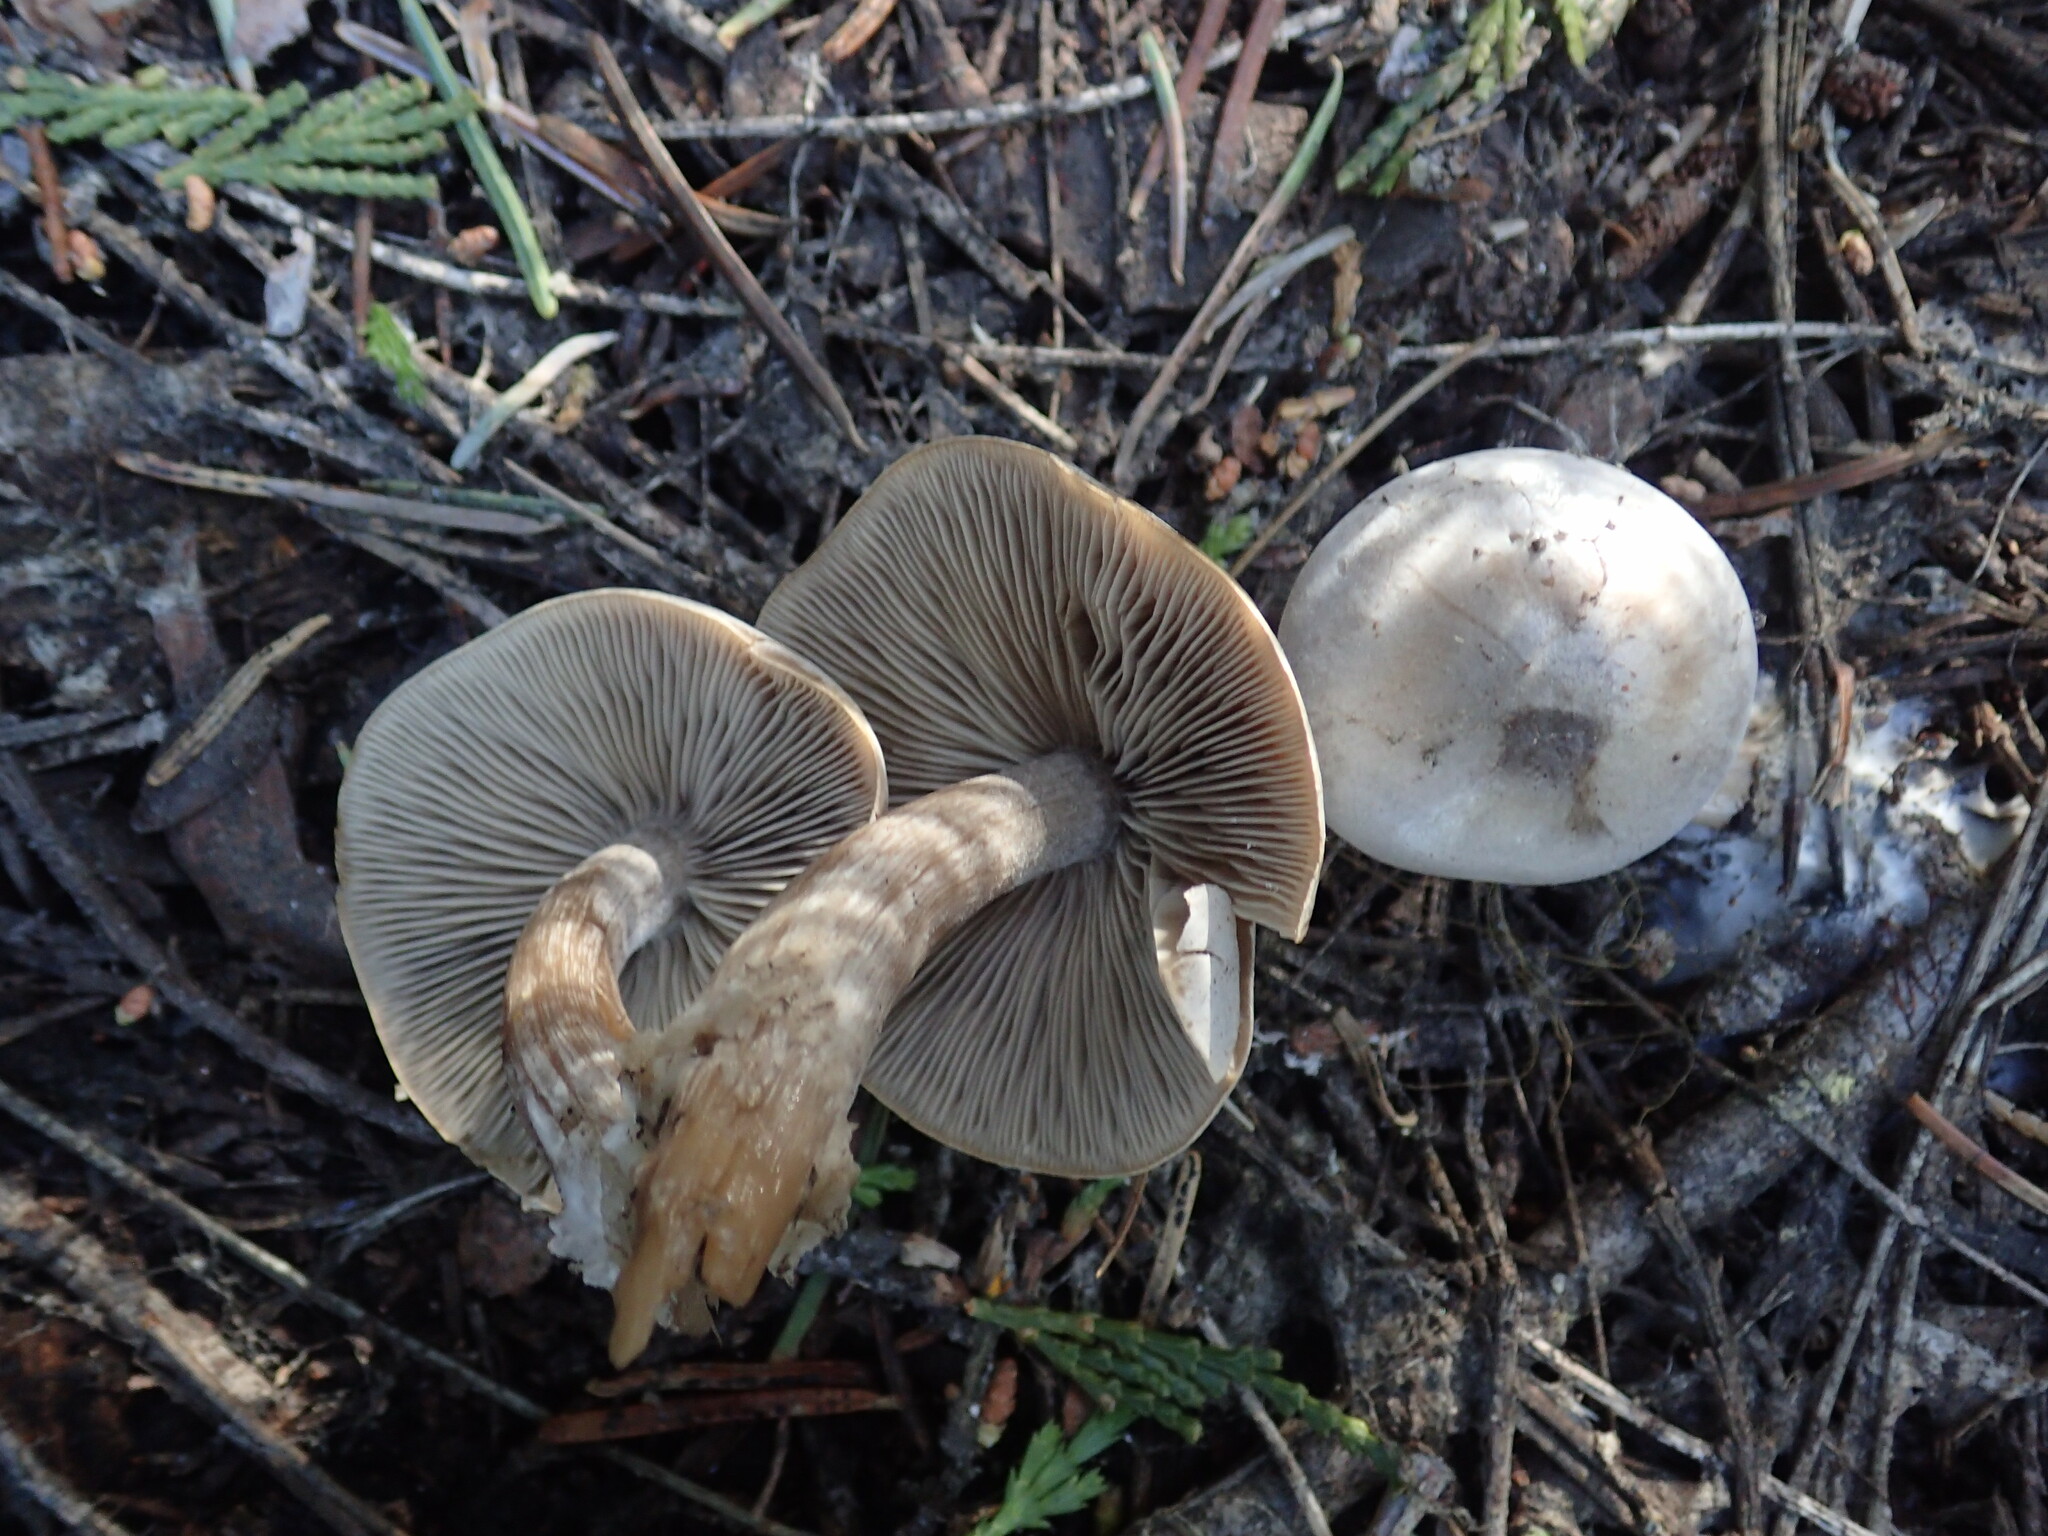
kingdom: Fungi
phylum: Basidiomycota
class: Agaricomycetes
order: Agaricales
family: Tricholomataceae
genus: Clitocybe
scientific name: Clitocybe glacialis
